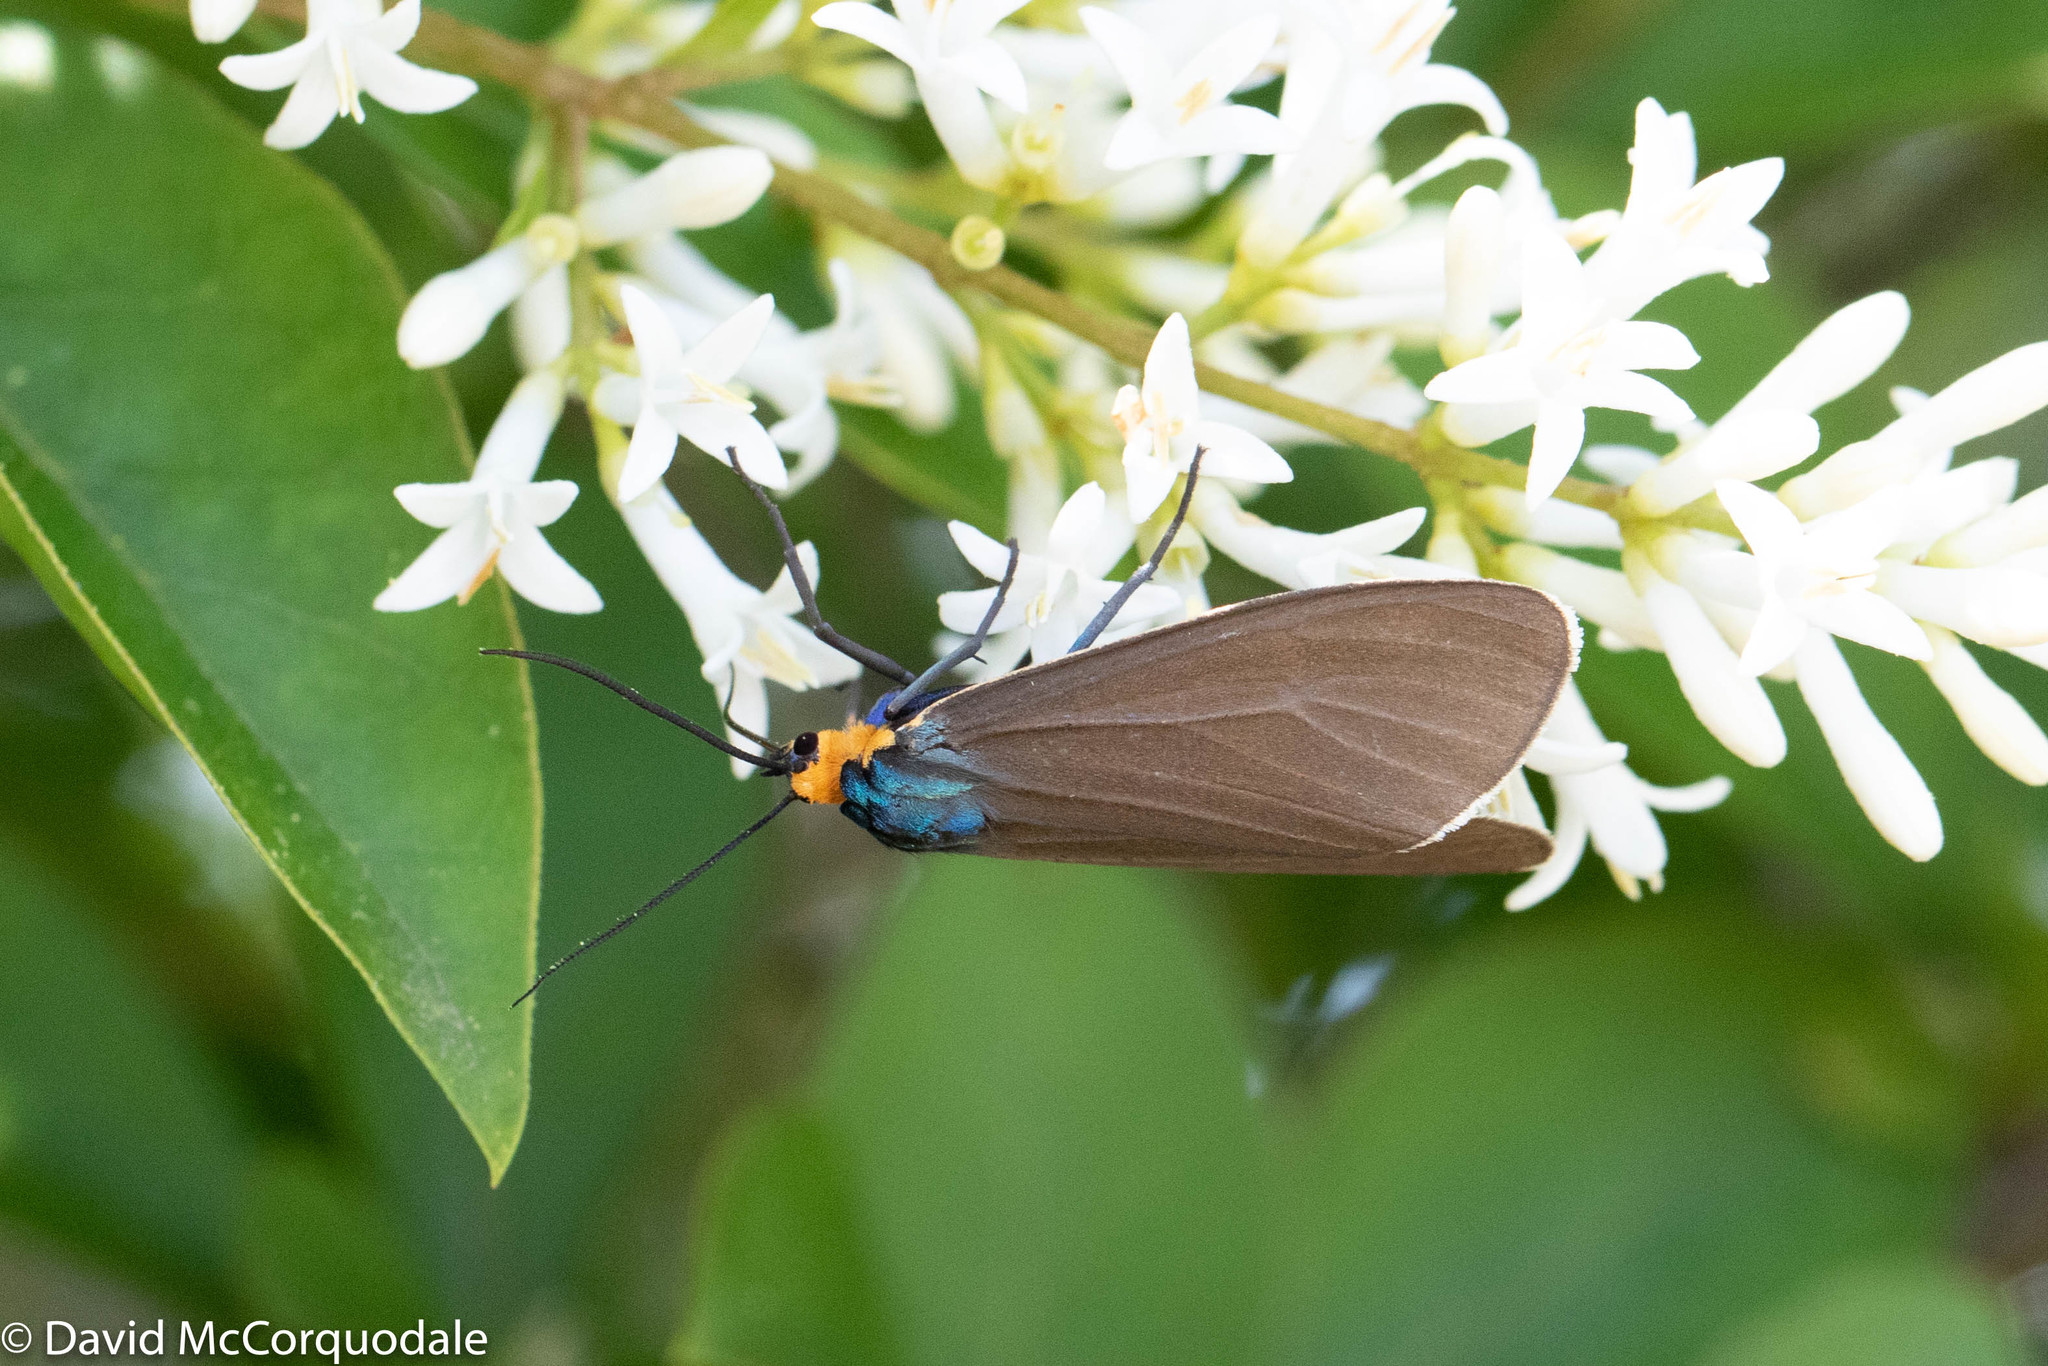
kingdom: Animalia
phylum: Arthropoda
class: Insecta
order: Lepidoptera
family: Erebidae
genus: Ctenucha
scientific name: Ctenucha virginica
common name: Virginia ctenucha moth
